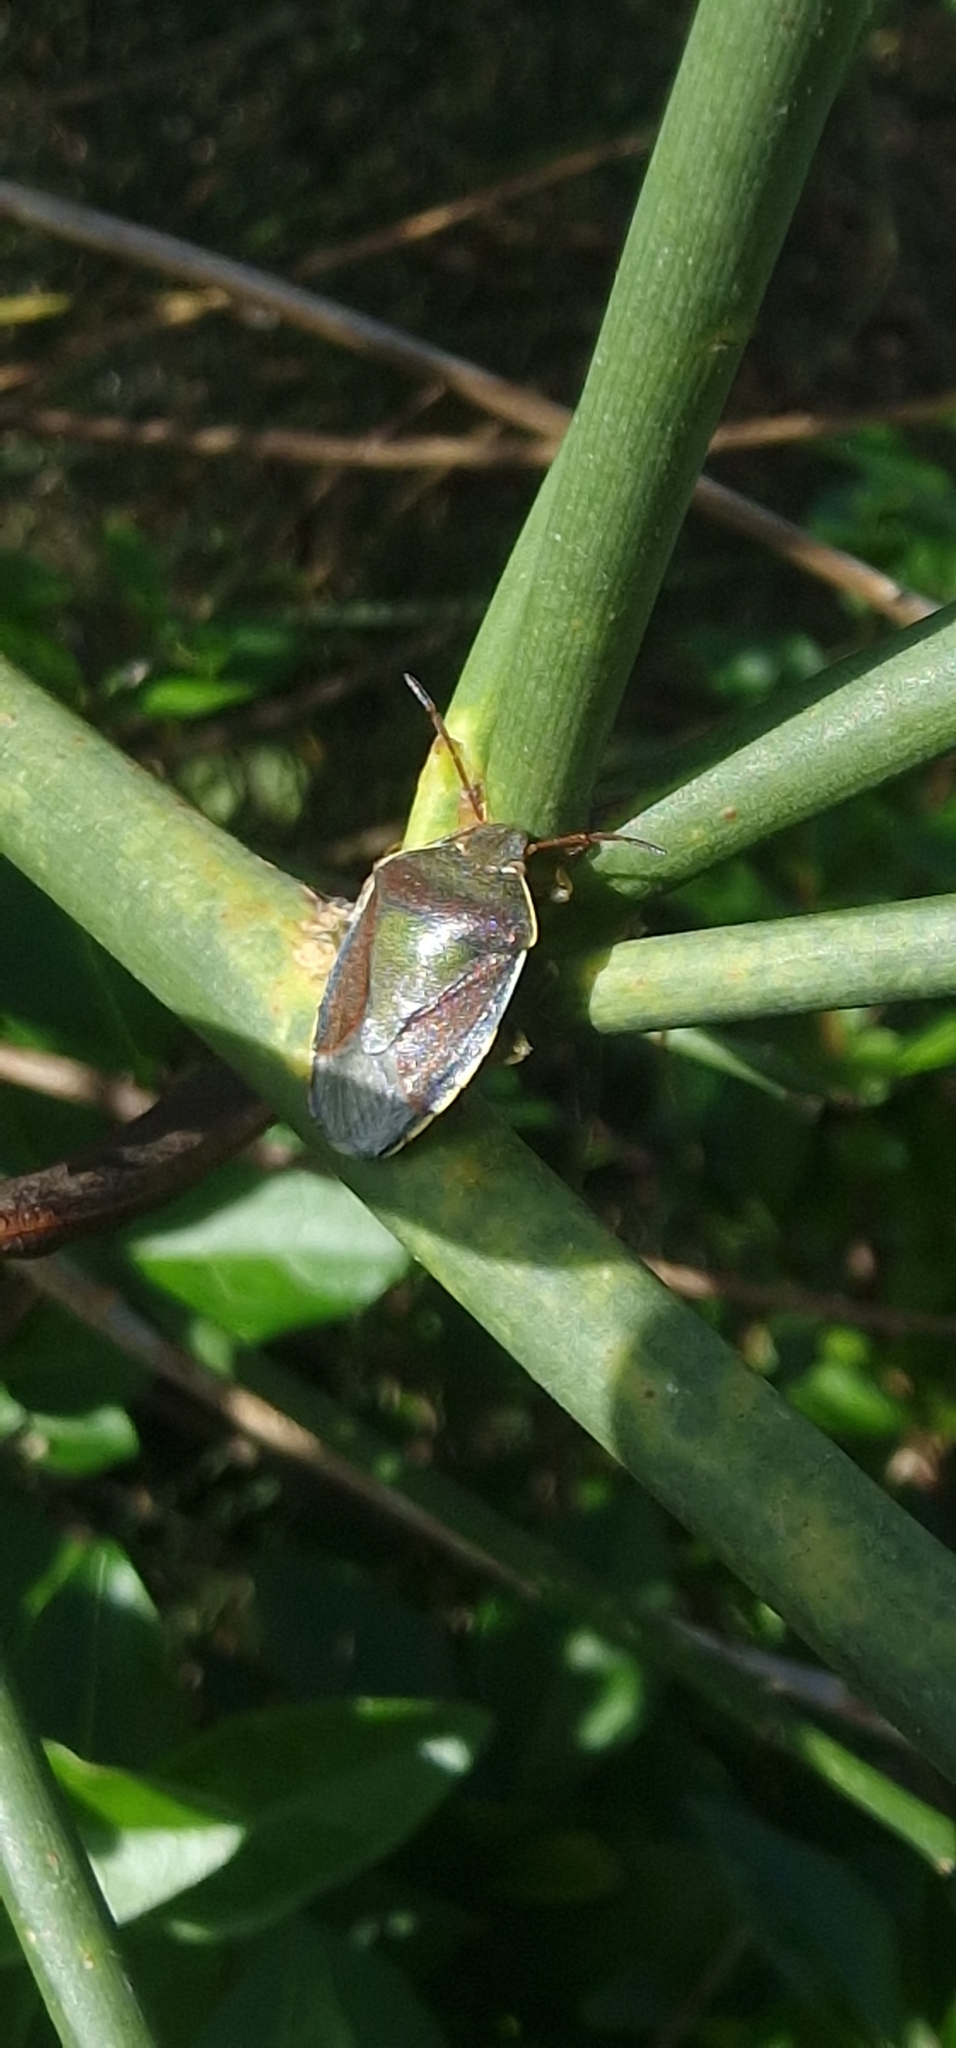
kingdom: Animalia
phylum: Arthropoda
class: Insecta
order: Hemiptera
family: Pentatomidae
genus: Piezodorus
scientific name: Piezodorus lituratus
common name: Stink bug
